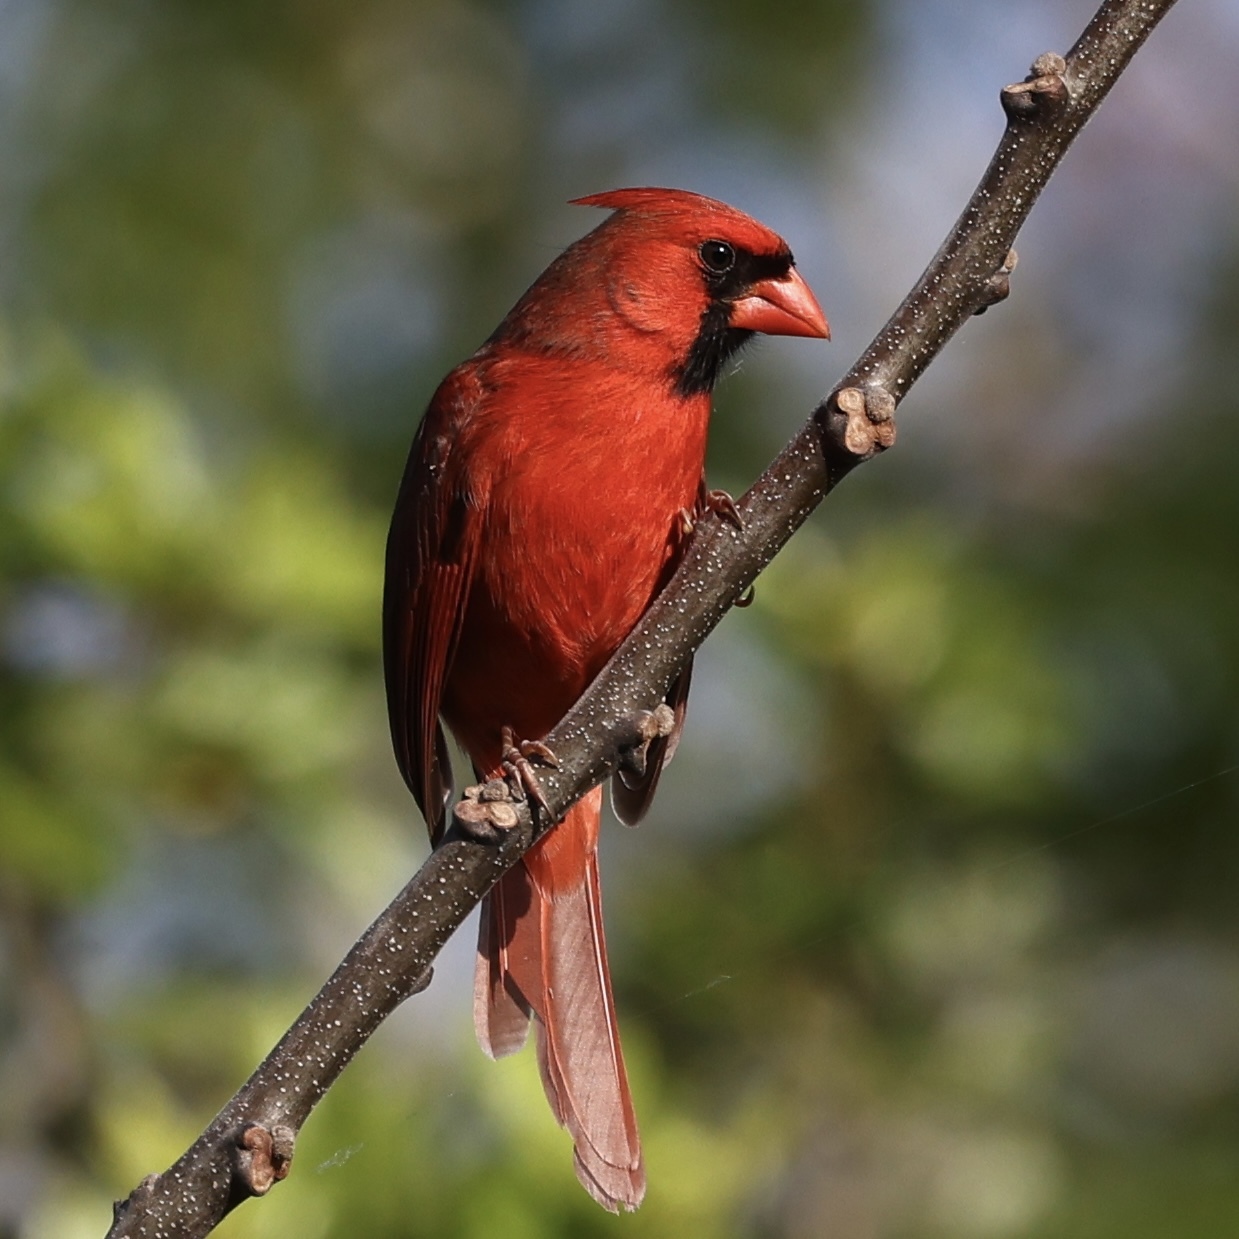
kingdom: Animalia
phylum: Chordata
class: Aves
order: Passeriformes
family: Cardinalidae
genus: Cardinalis
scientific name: Cardinalis cardinalis
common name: Northern cardinal
